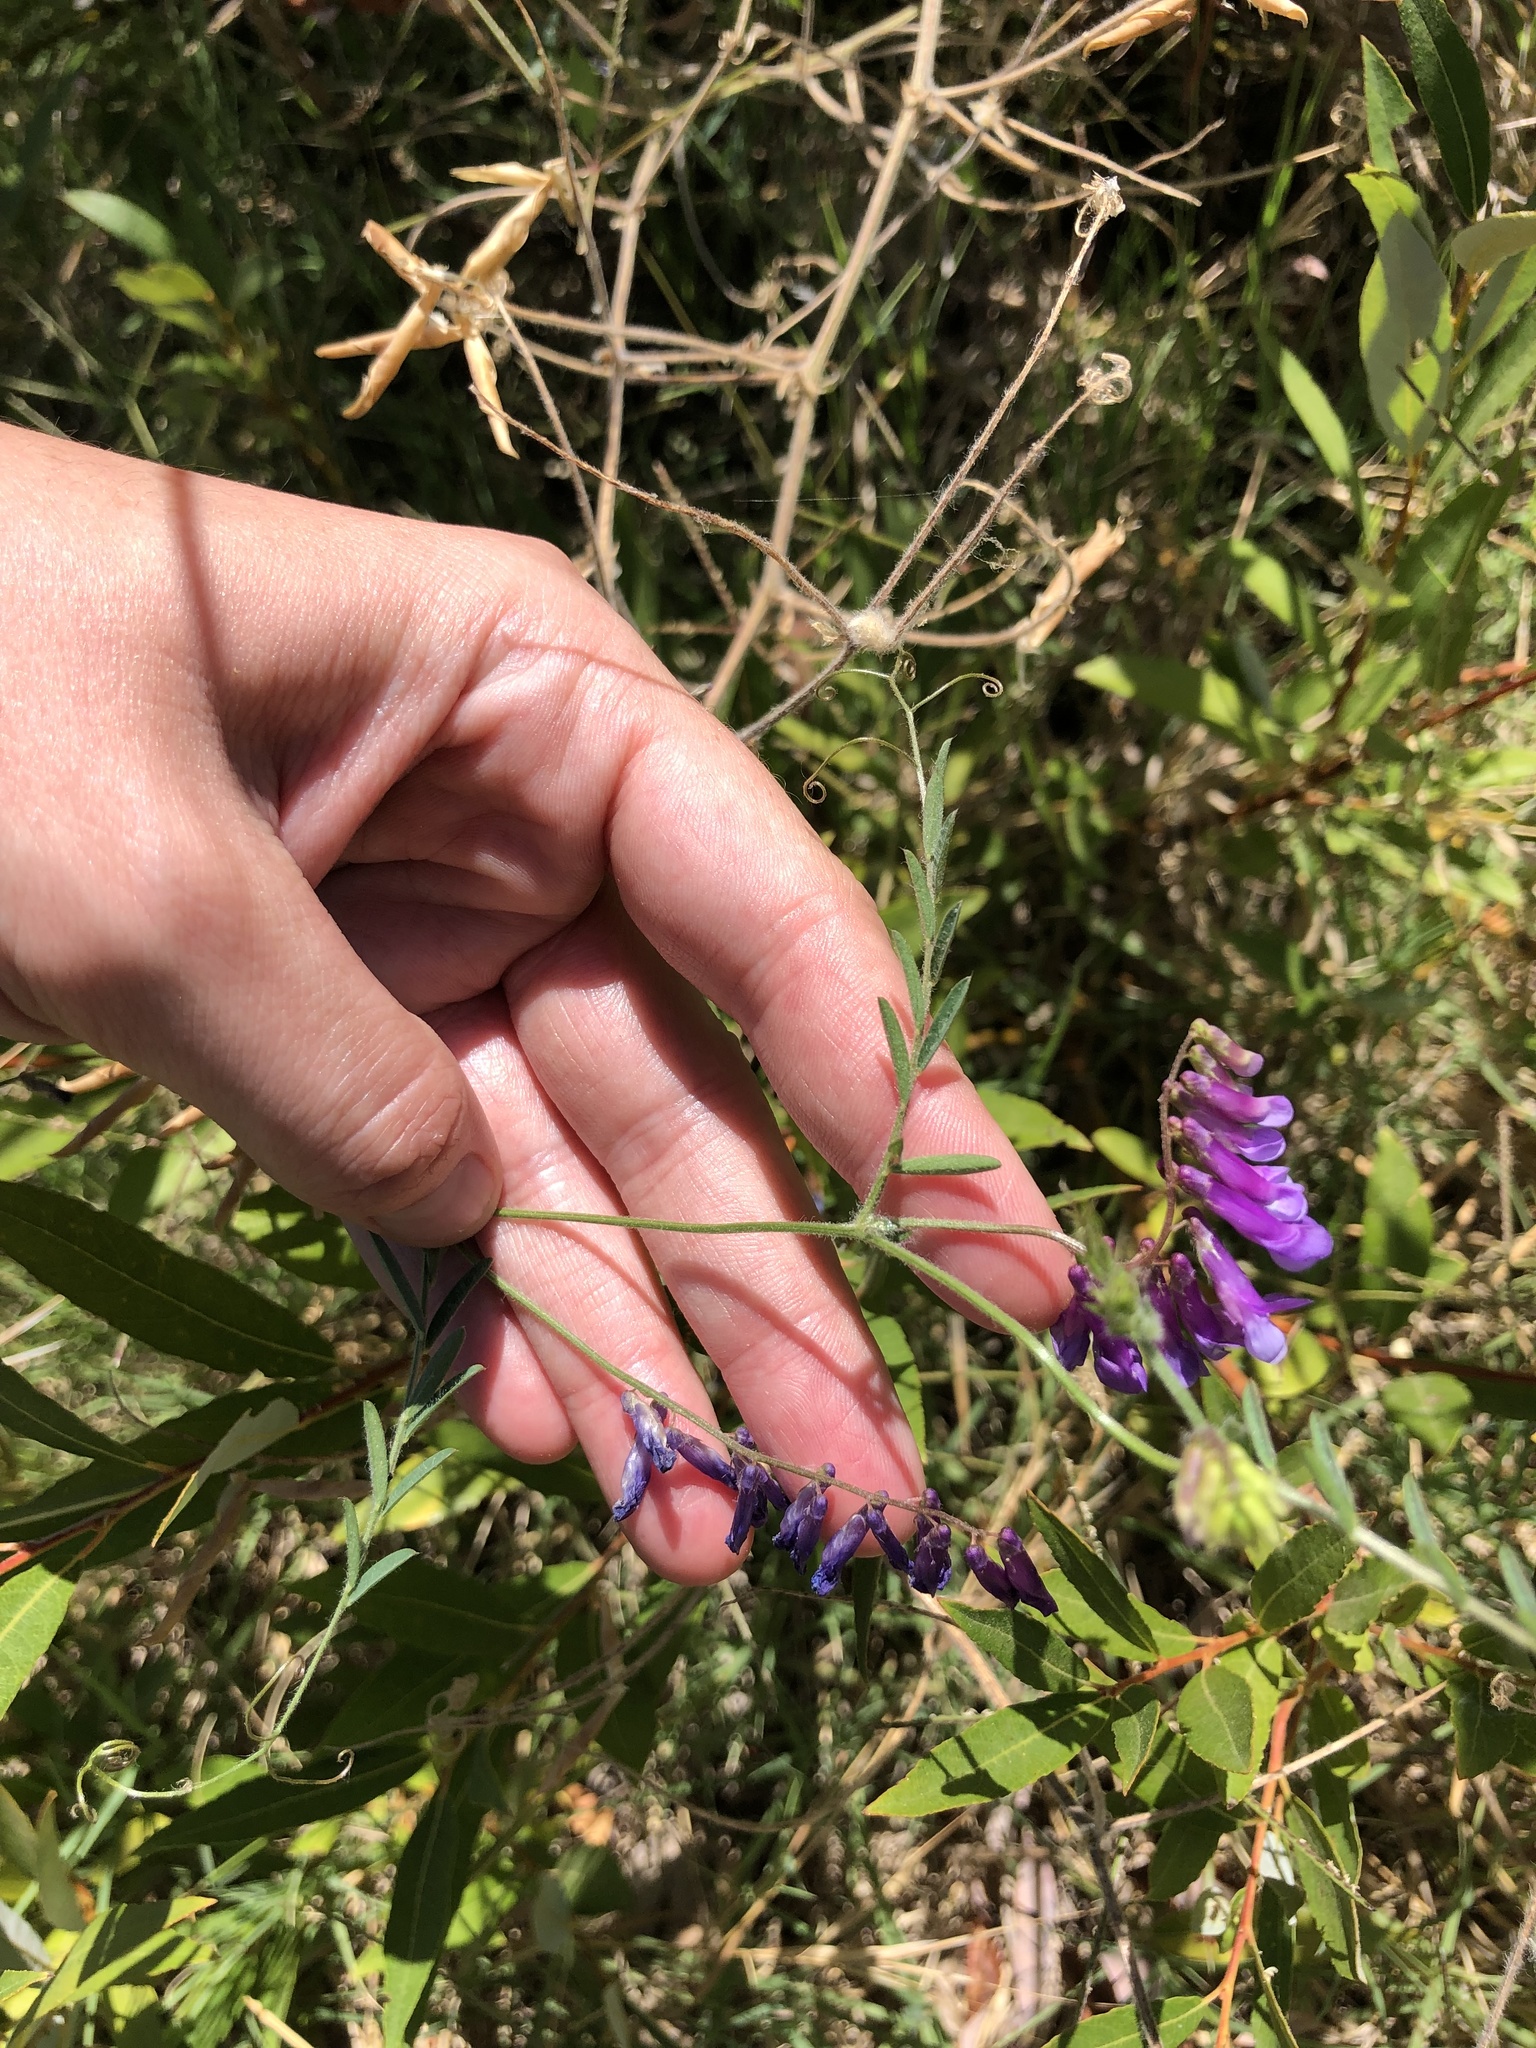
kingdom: Plantae
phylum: Tracheophyta
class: Magnoliopsida
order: Fabales
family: Fabaceae
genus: Vicia
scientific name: Vicia villosa
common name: Fodder vetch
